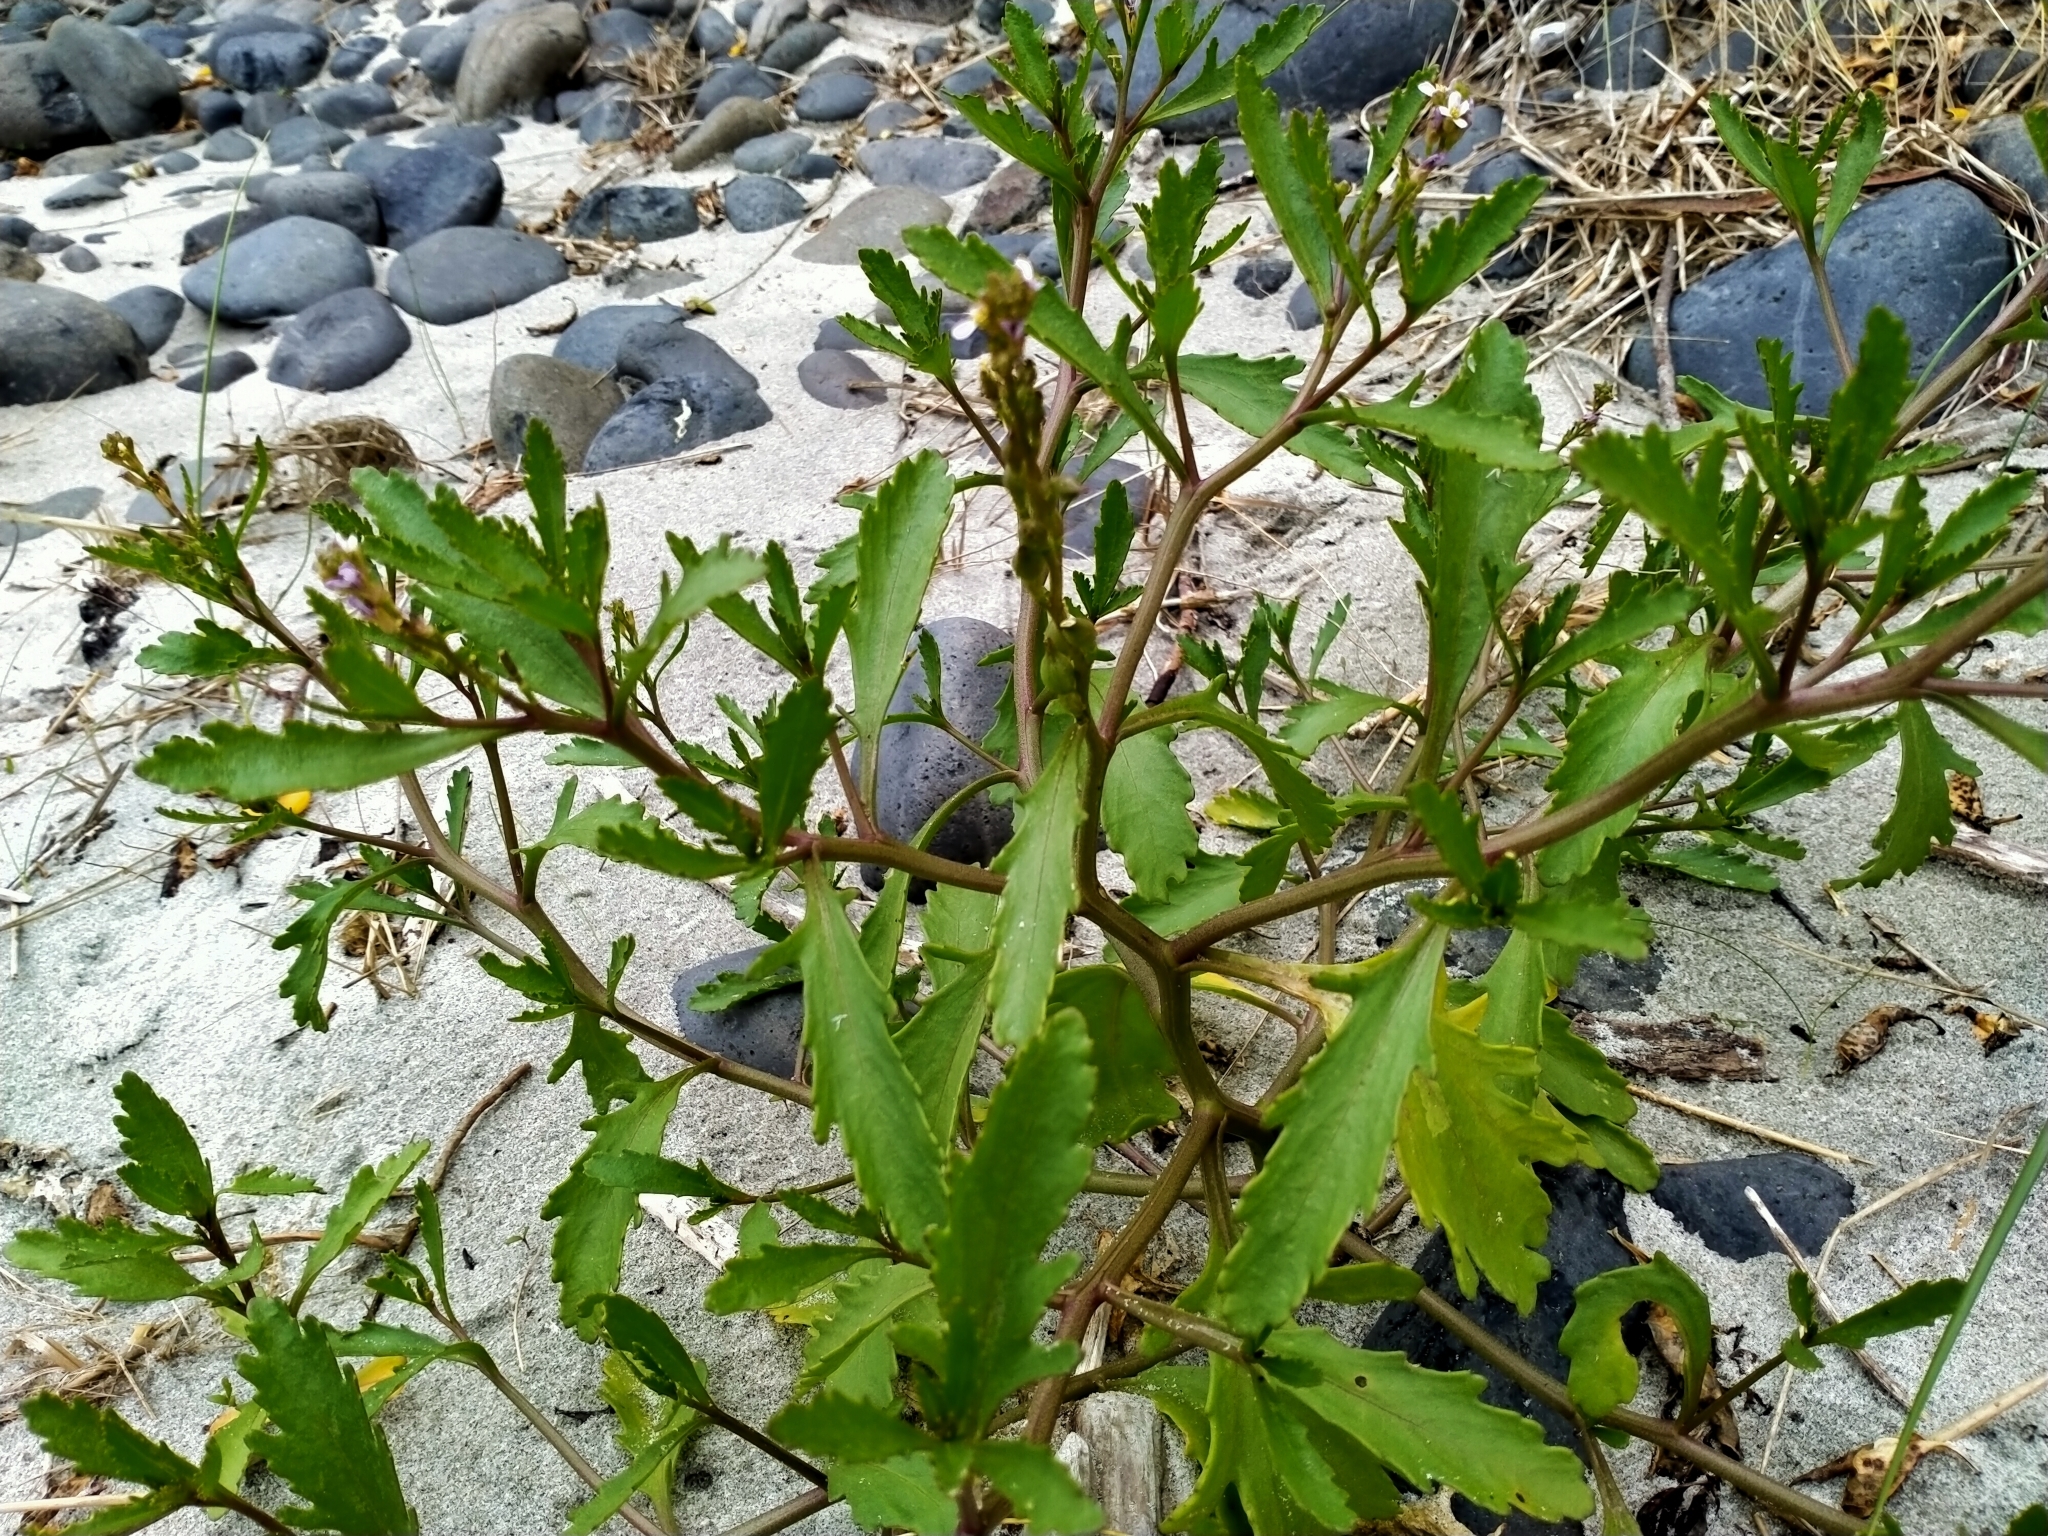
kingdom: Plantae
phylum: Tracheophyta
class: Magnoliopsida
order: Brassicales
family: Brassicaceae
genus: Cakile
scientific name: Cakile edentula
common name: American sea rocket
